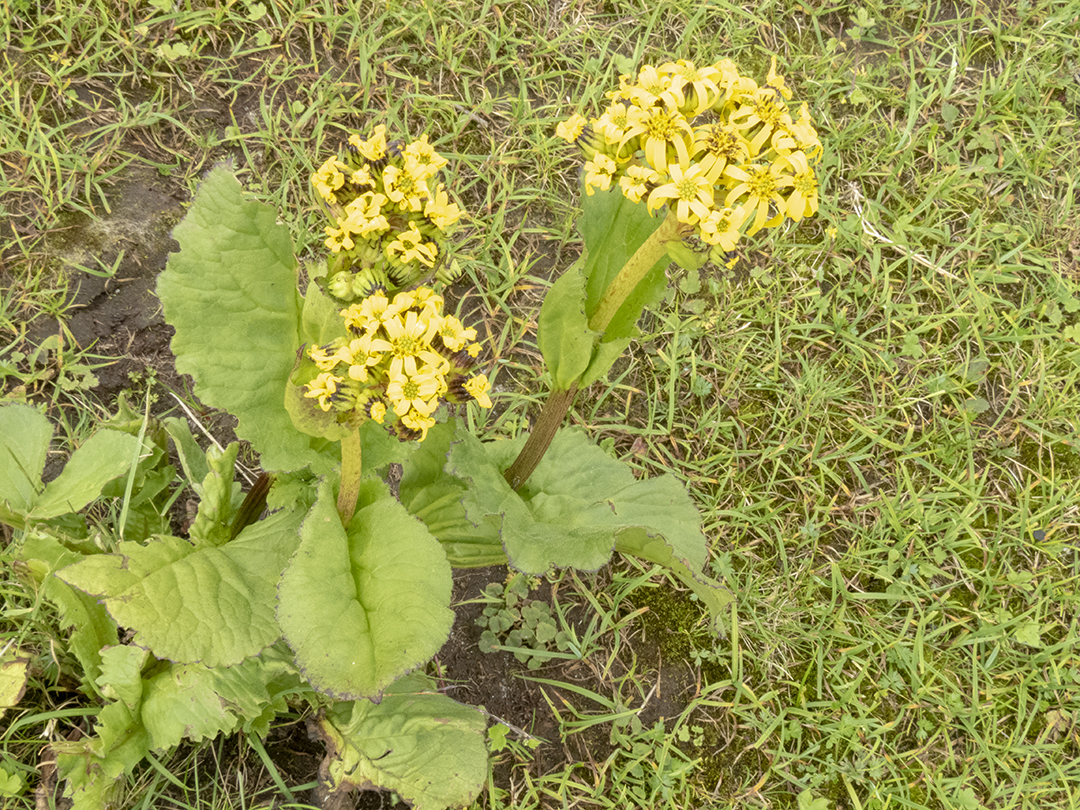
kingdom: Plantae
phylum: Tracheophyta
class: Magnoliopsida
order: Asterales
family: Asteraceae
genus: Ligularia
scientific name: Ligularia amplexicaulis
